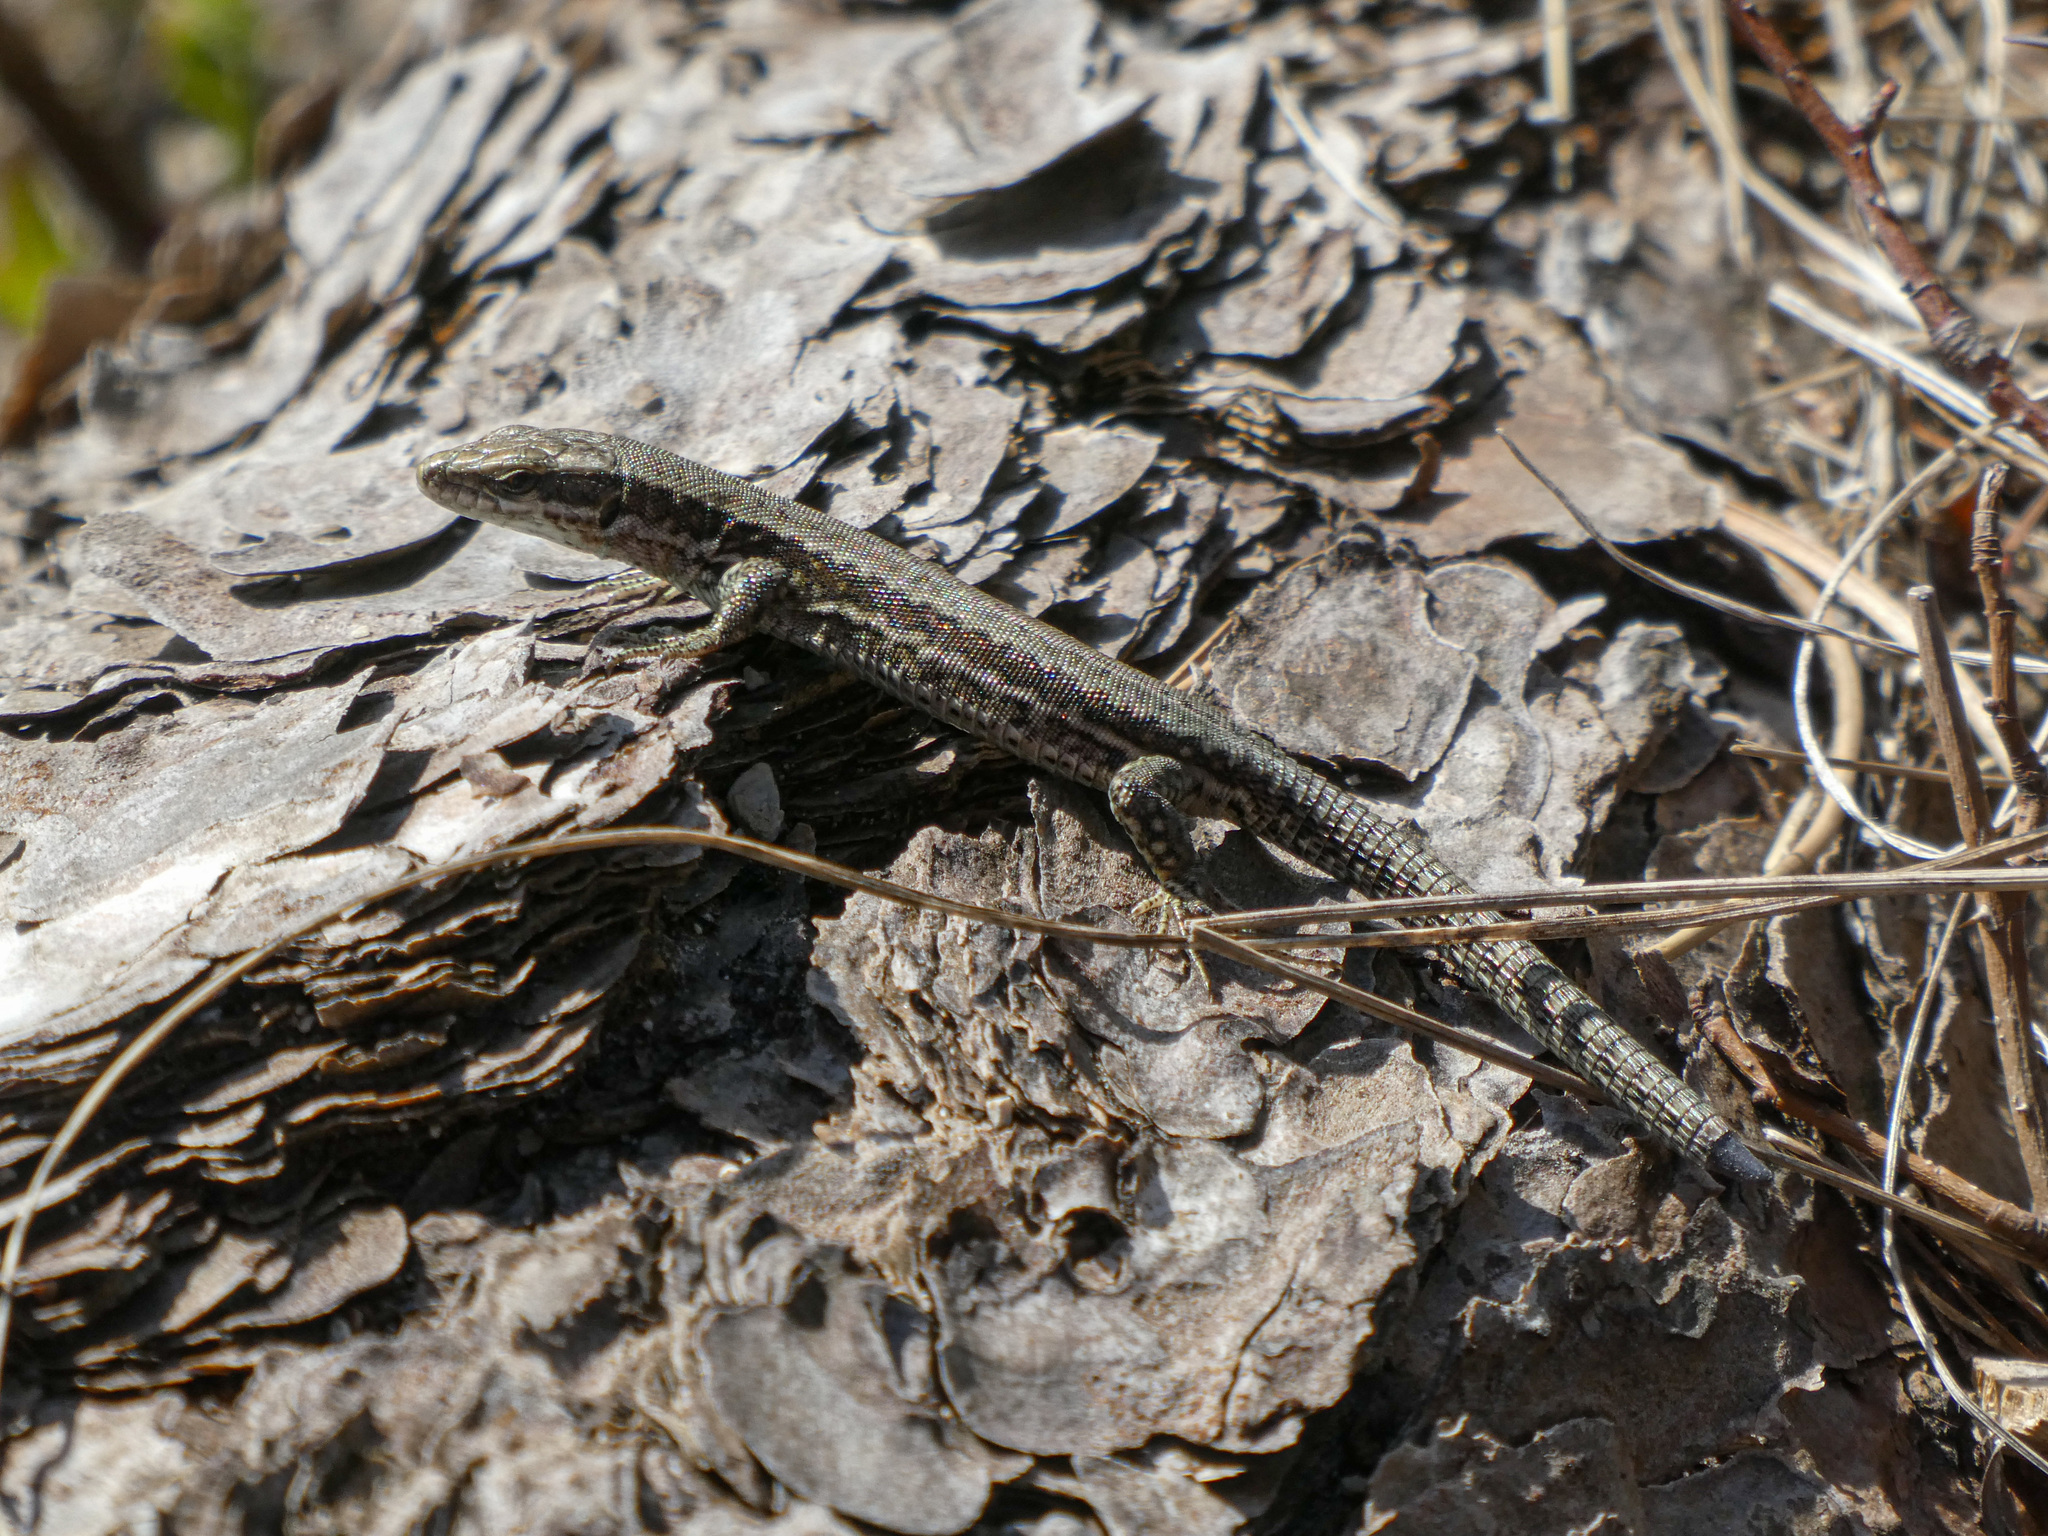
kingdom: Animalia
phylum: Chordata
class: Squamata
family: Lacertidae
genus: Podarcis
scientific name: Podarcis muralis
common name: Common wall lizard
